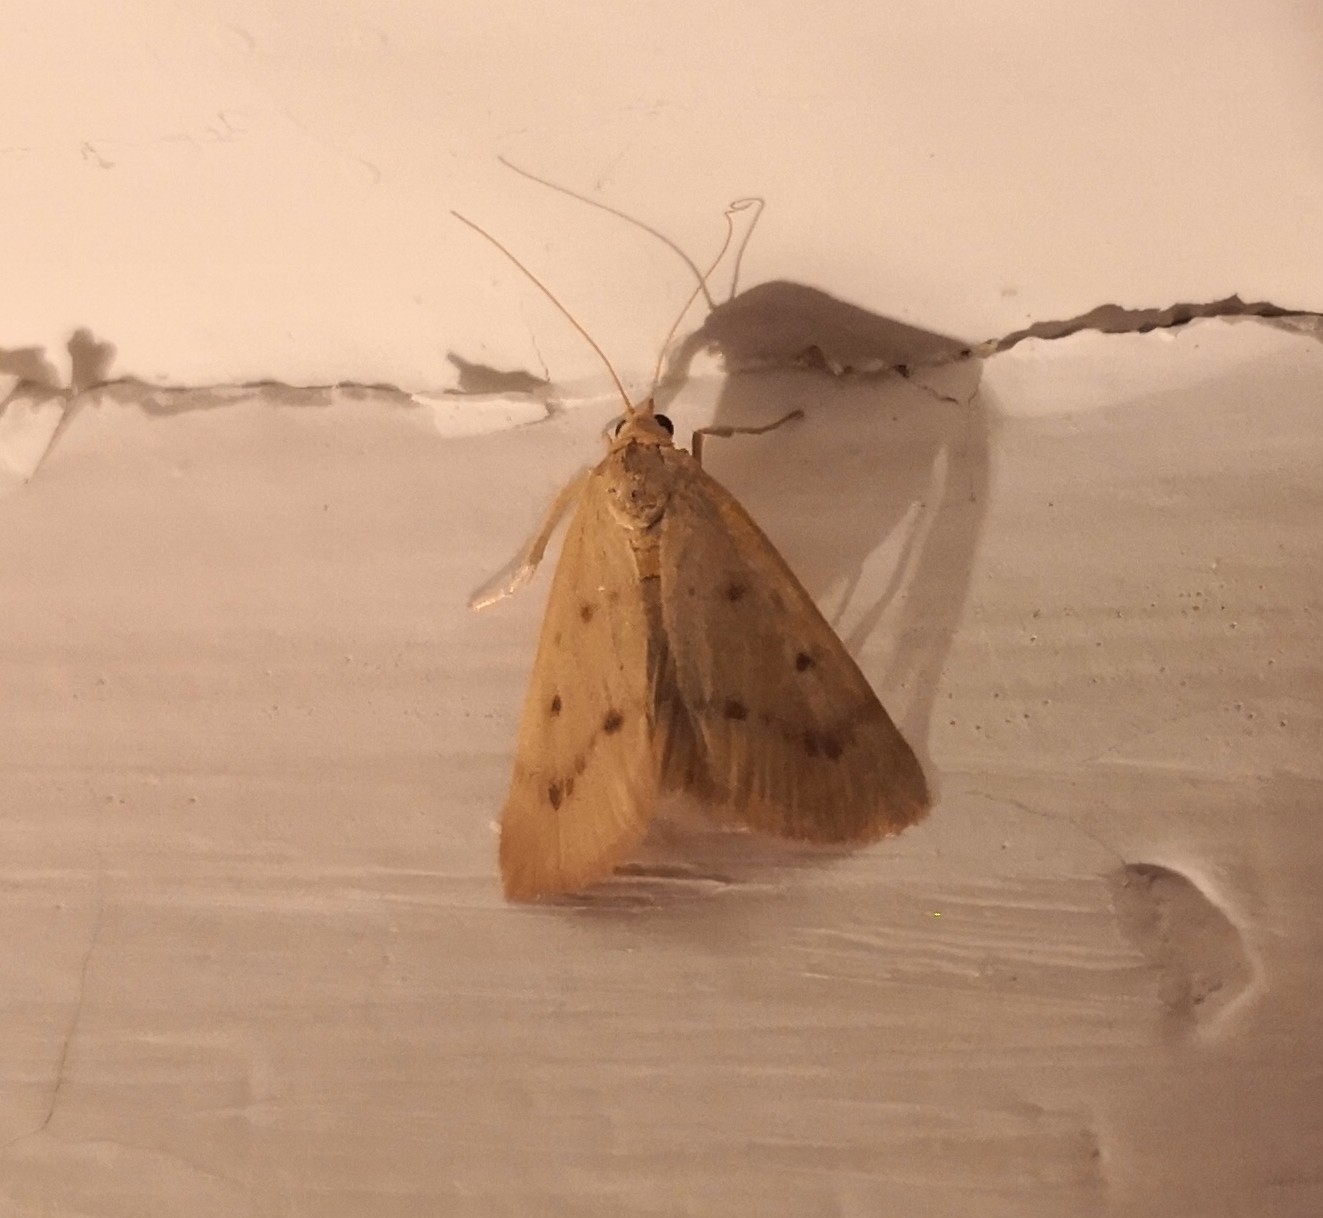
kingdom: Animalia
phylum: Arthropoda
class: Insecta
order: Lepidoptera
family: Crambidae
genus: Achyra
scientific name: Achyra nudalis
